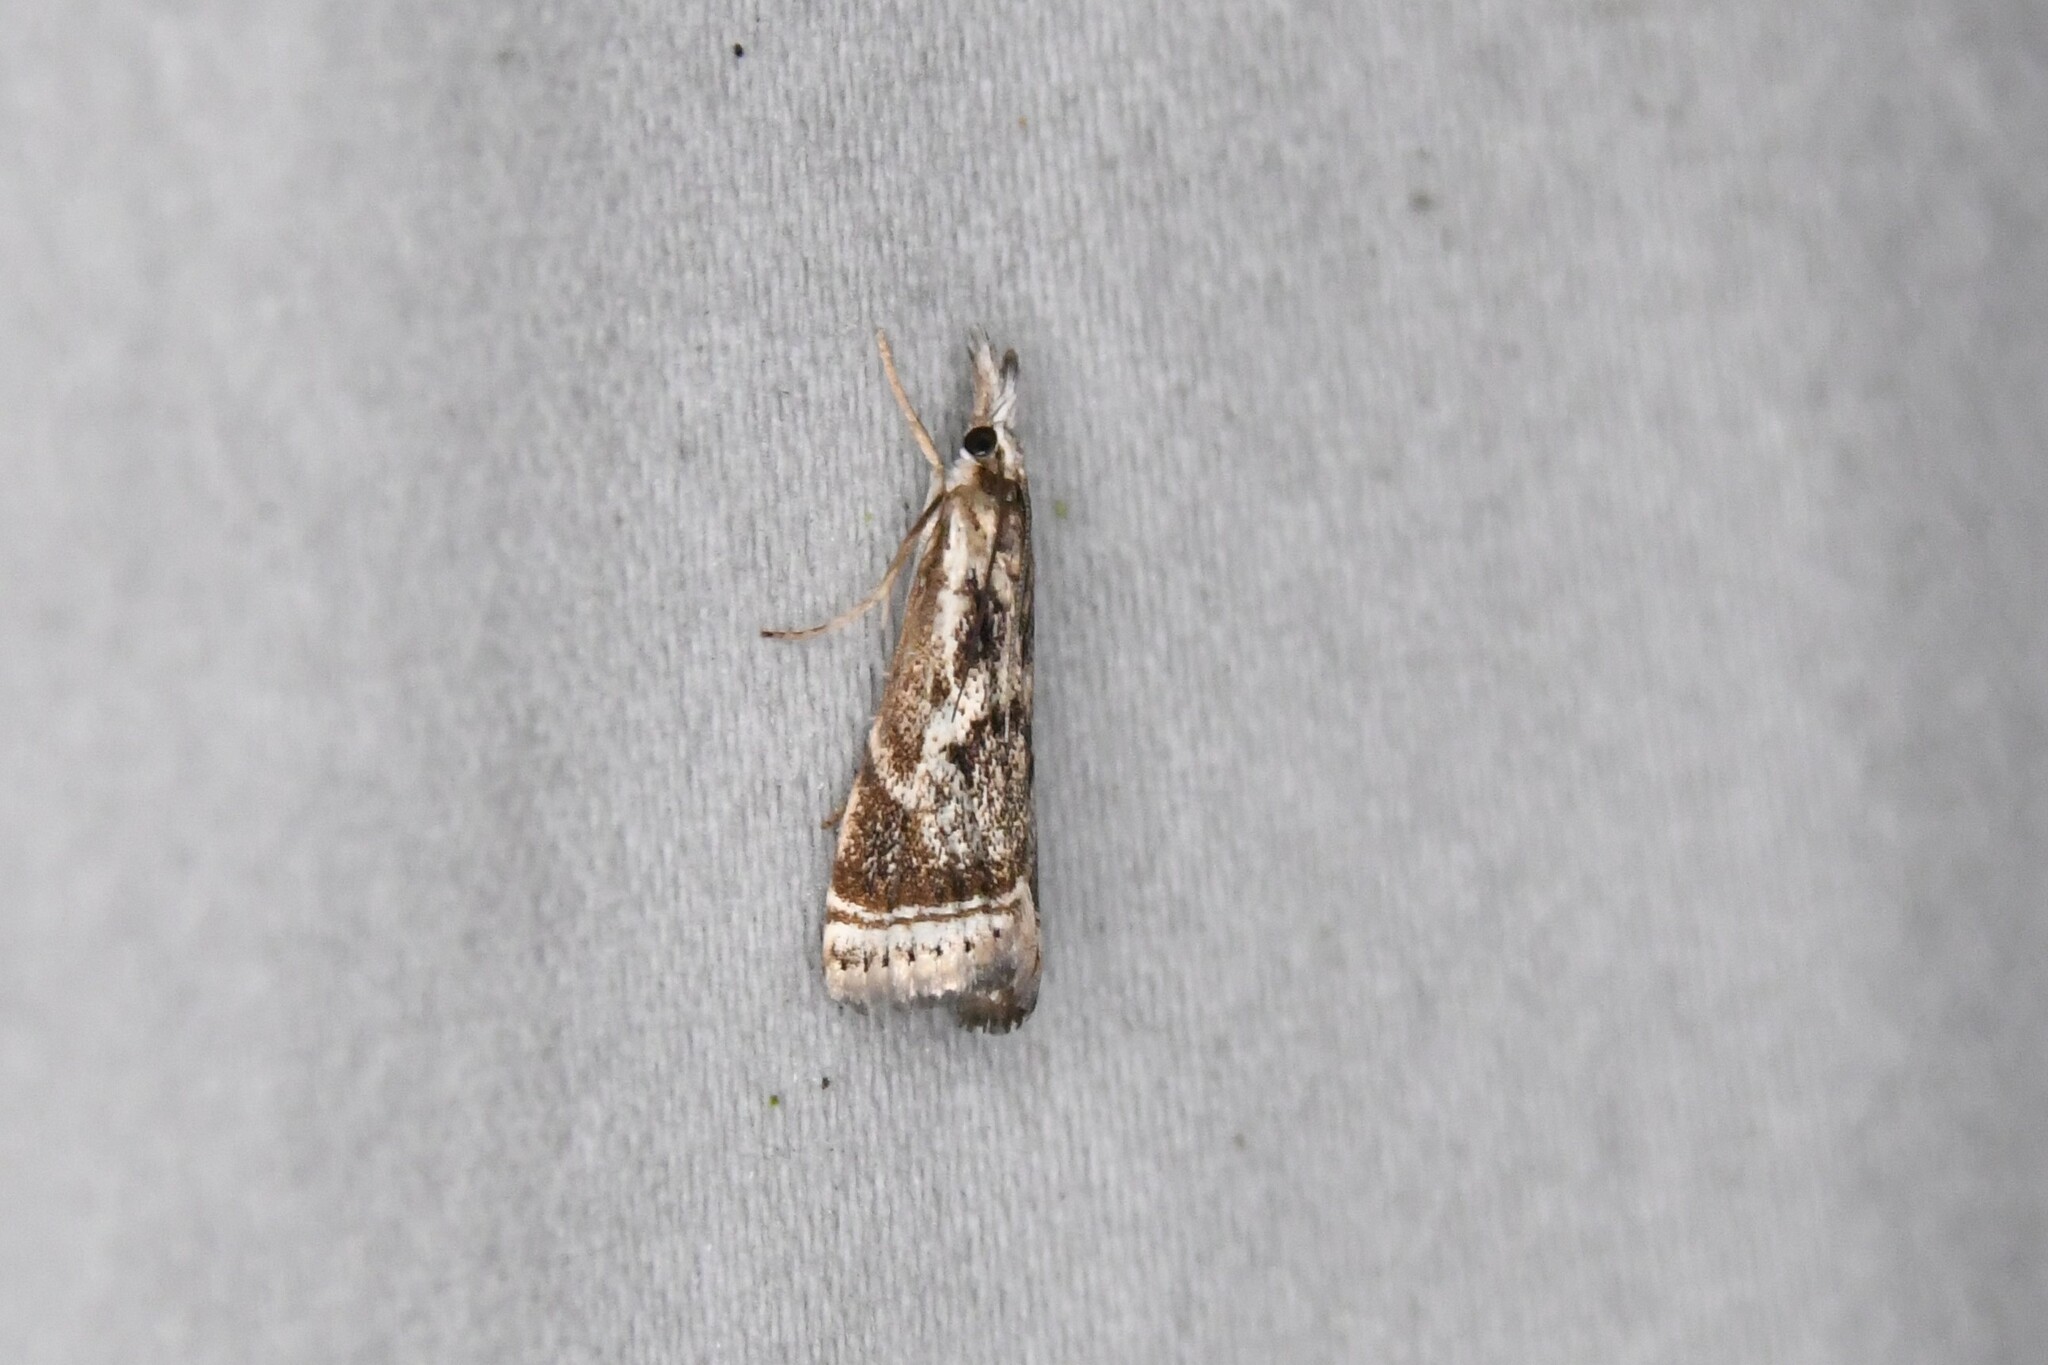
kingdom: Animalia
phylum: Arthropoda
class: Insecta
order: Lepidoptera
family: Crambidae
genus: Microcrambus
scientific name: Microcrambus elegans
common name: Elegant grass-veneer
